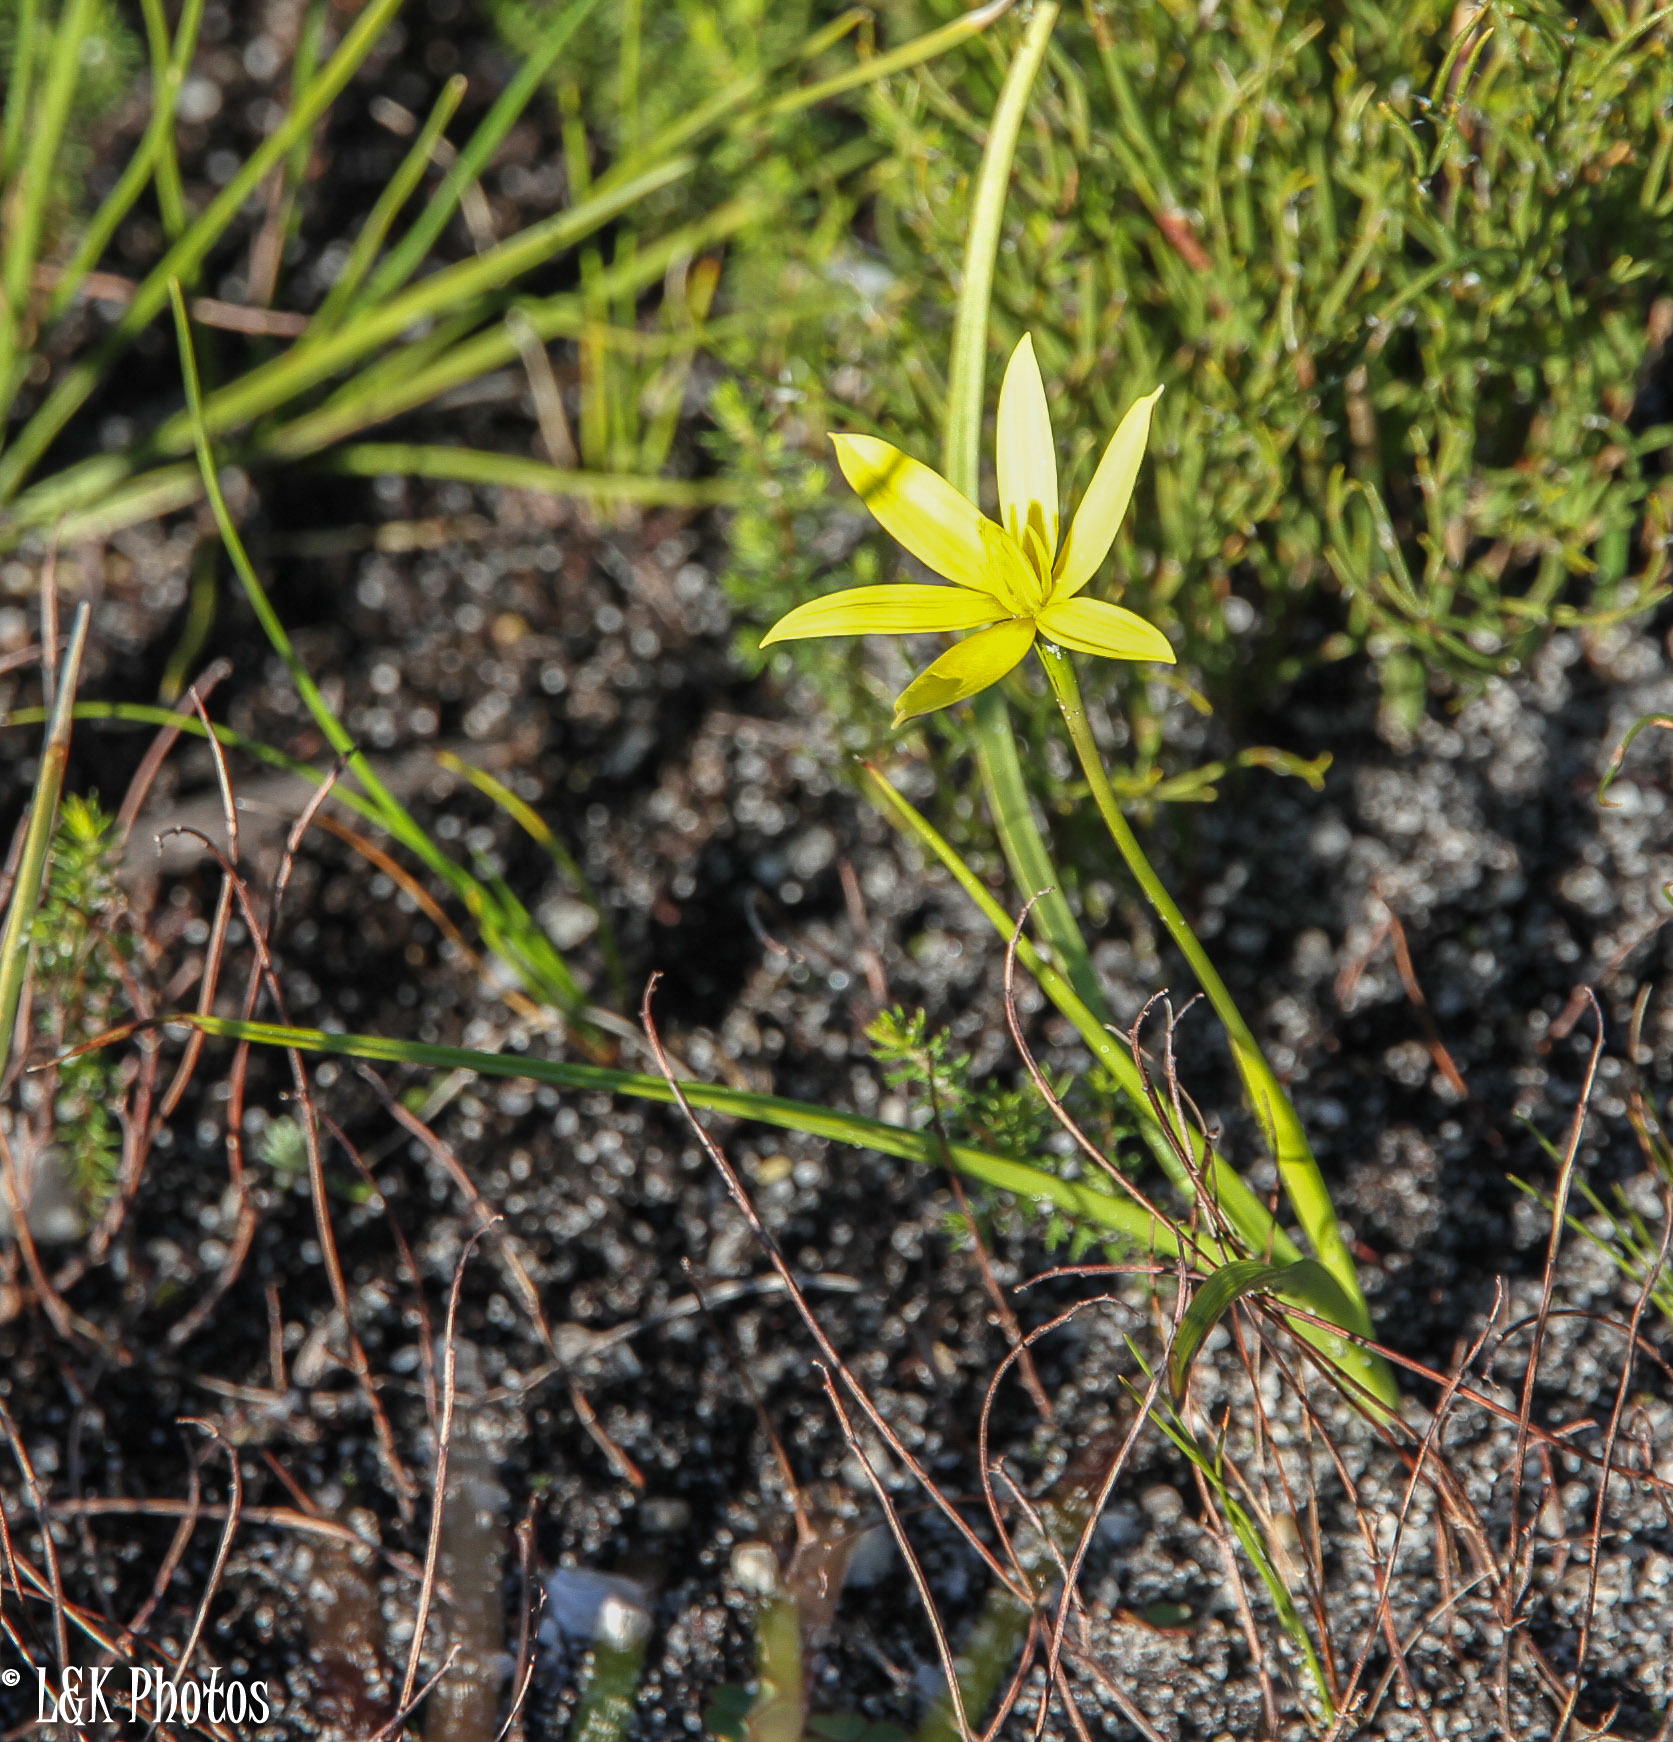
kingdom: Plantae
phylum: Tracheophyta
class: Liliopsida
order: Asparagales
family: Hypoxidaceae
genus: Pauridia
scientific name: Pauridia flaccida
